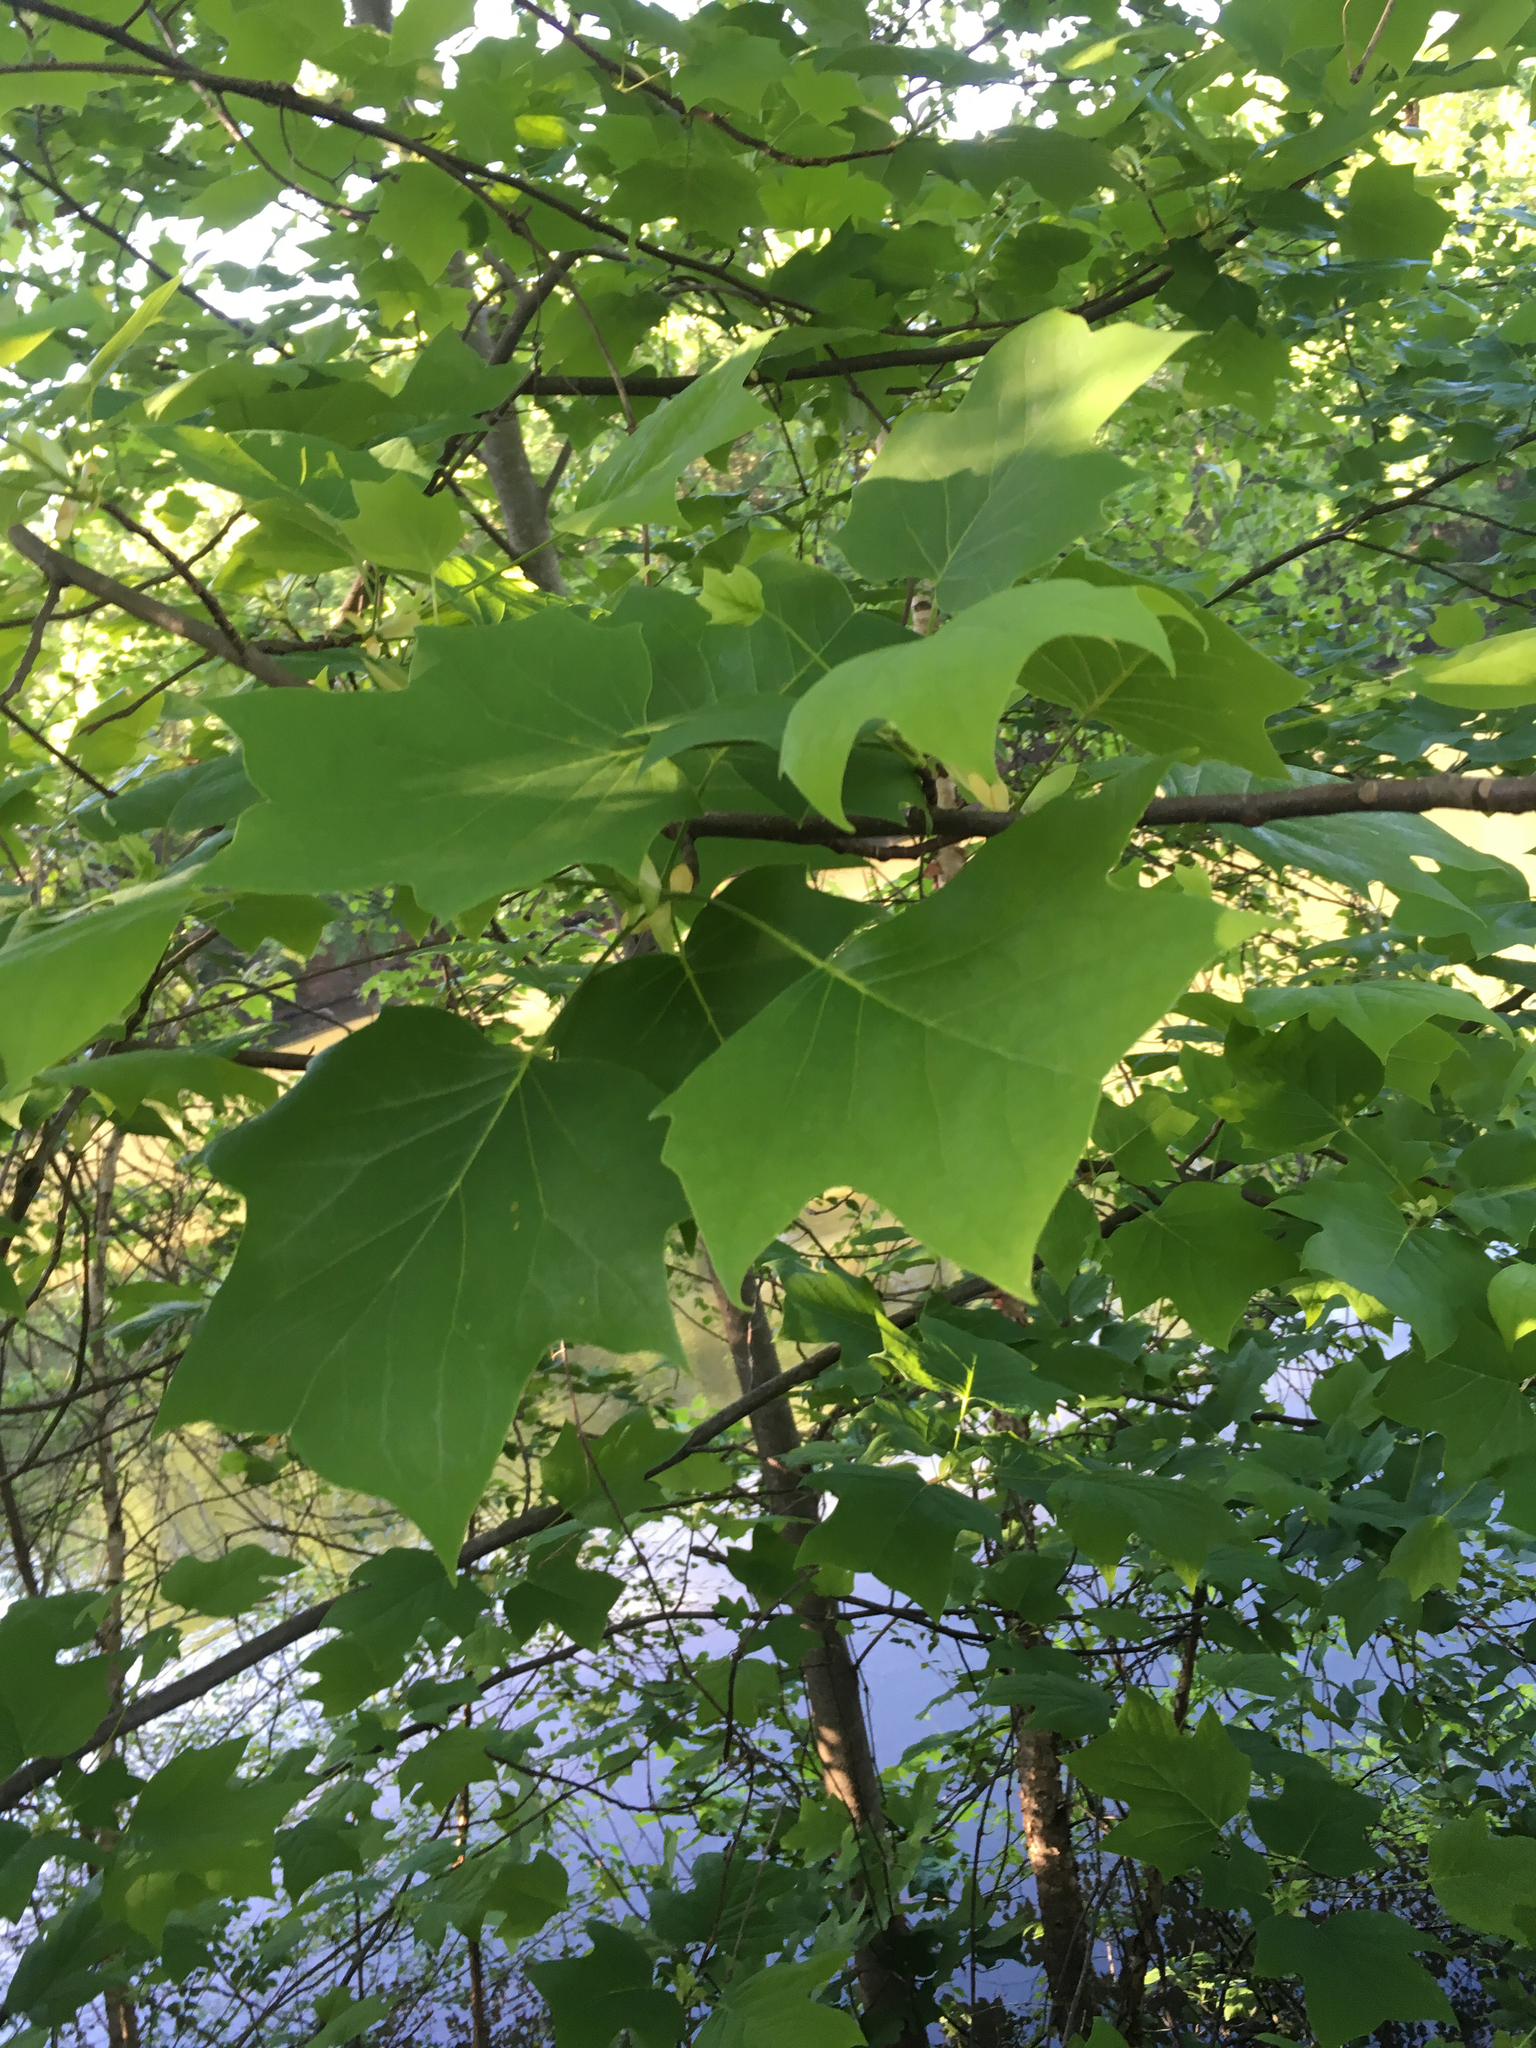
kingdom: Plantae
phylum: Tracheophyta
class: Magnoliopsida
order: Magnoliales
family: Magnoliaceae
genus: Liriodendron
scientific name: Liriodendron tulipifera
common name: Tulip tree
